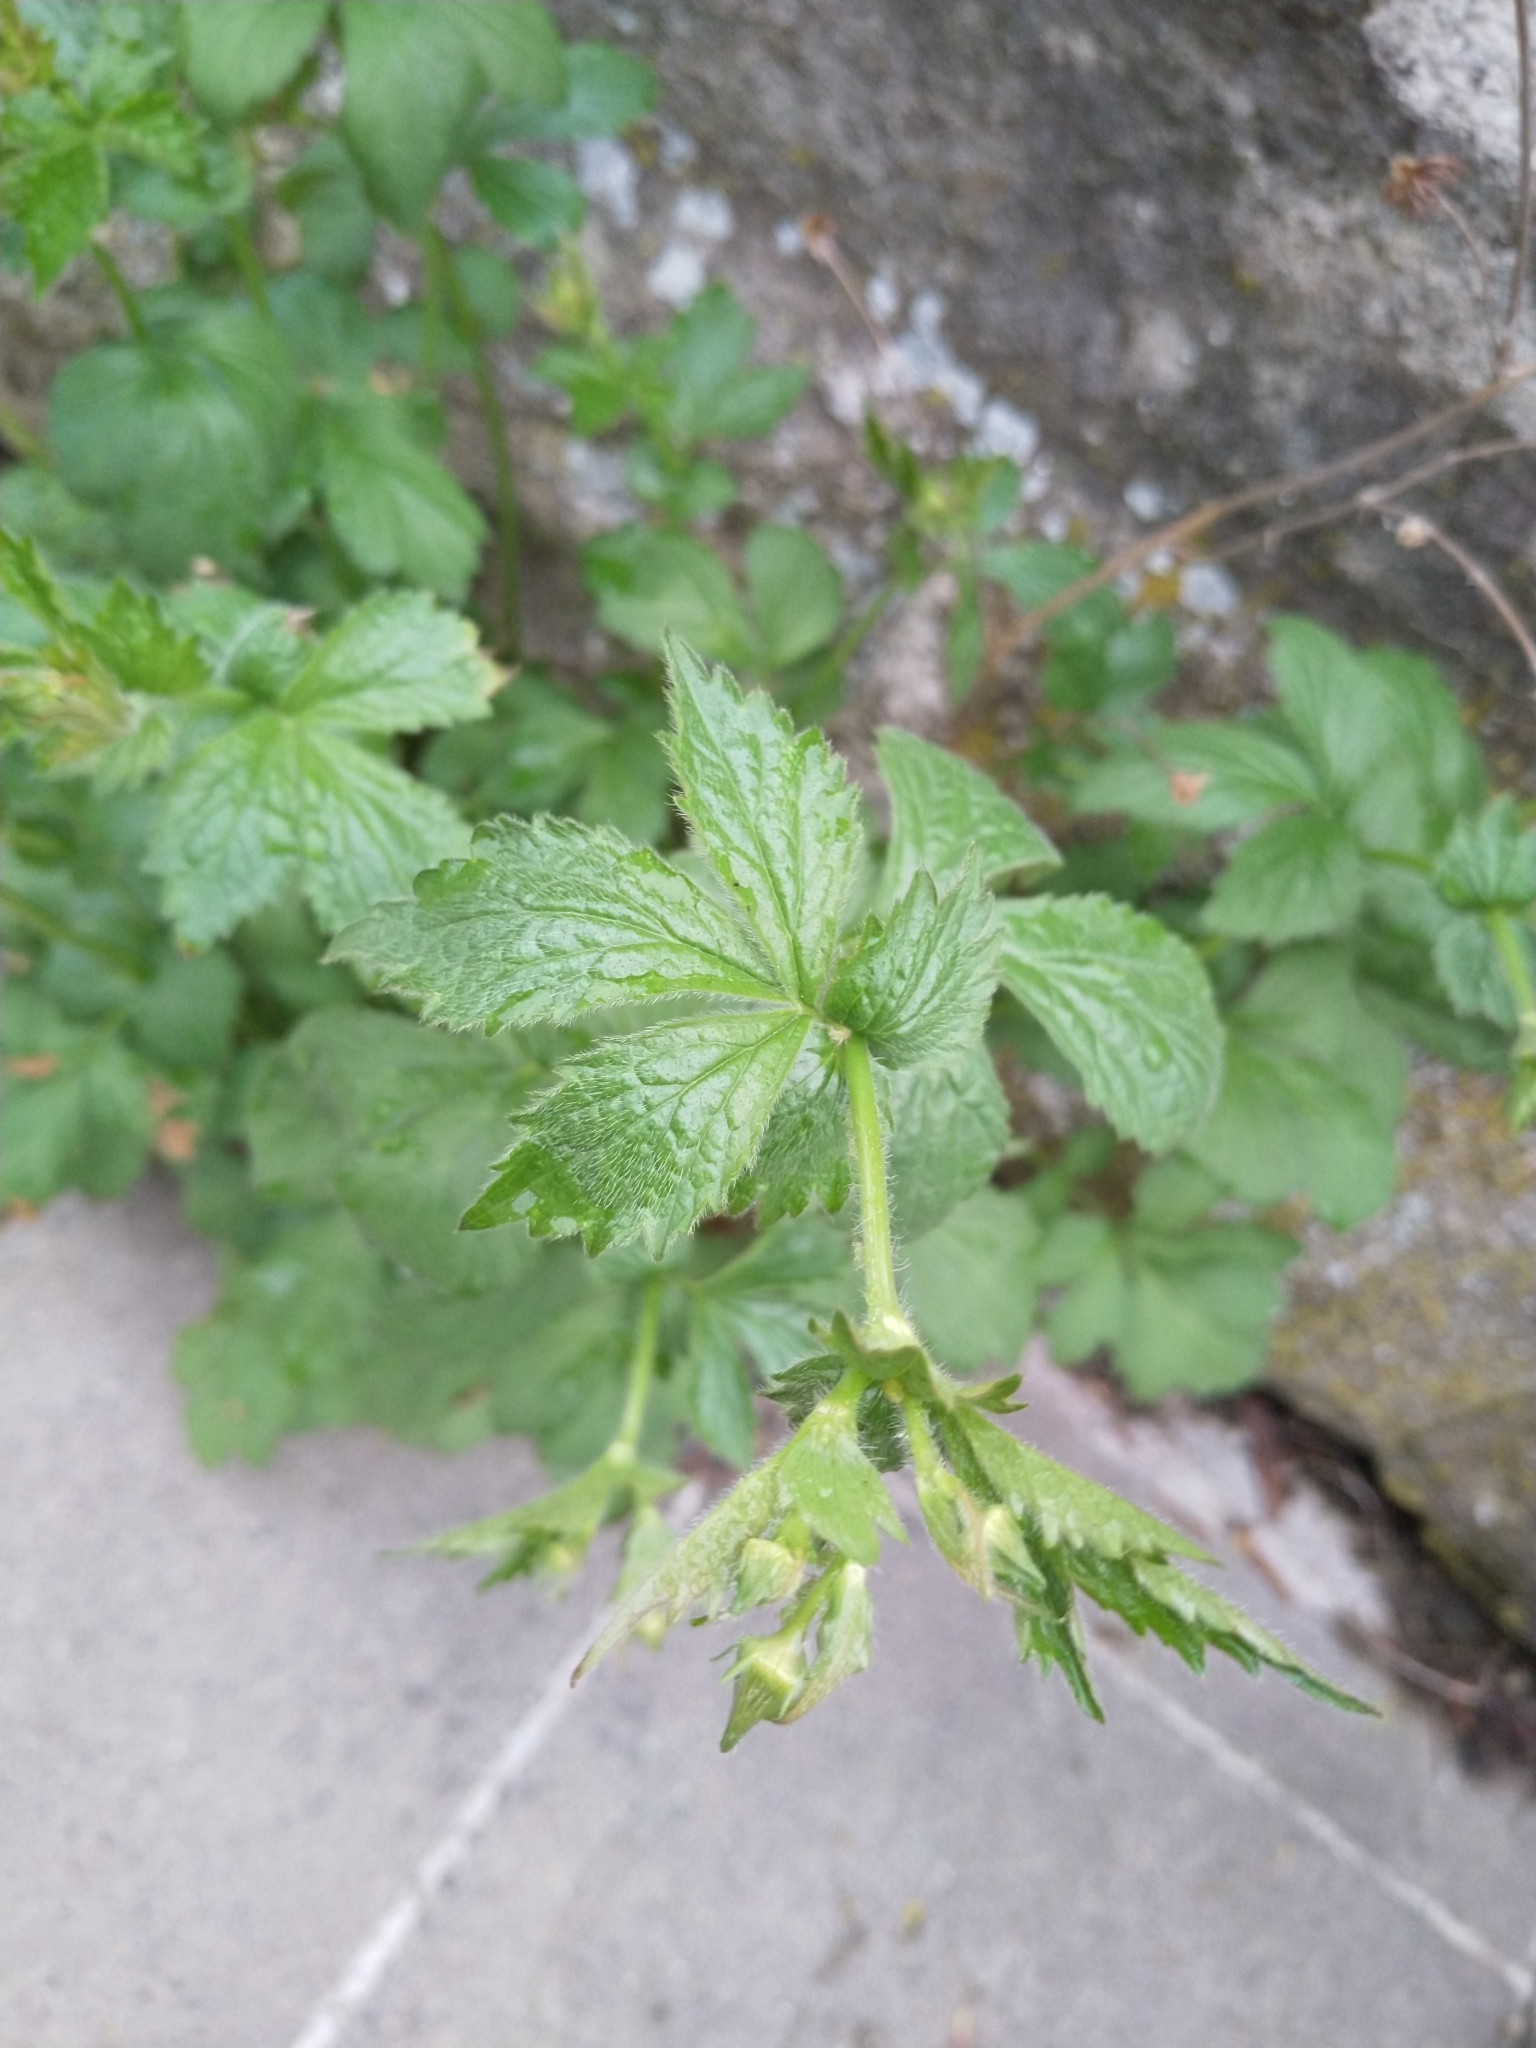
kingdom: Plantae
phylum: Tracheophyta
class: Magnoliopsida
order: Rosales
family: Rosaceae
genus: Geum
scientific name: Geum urbanum
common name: Wood avens
